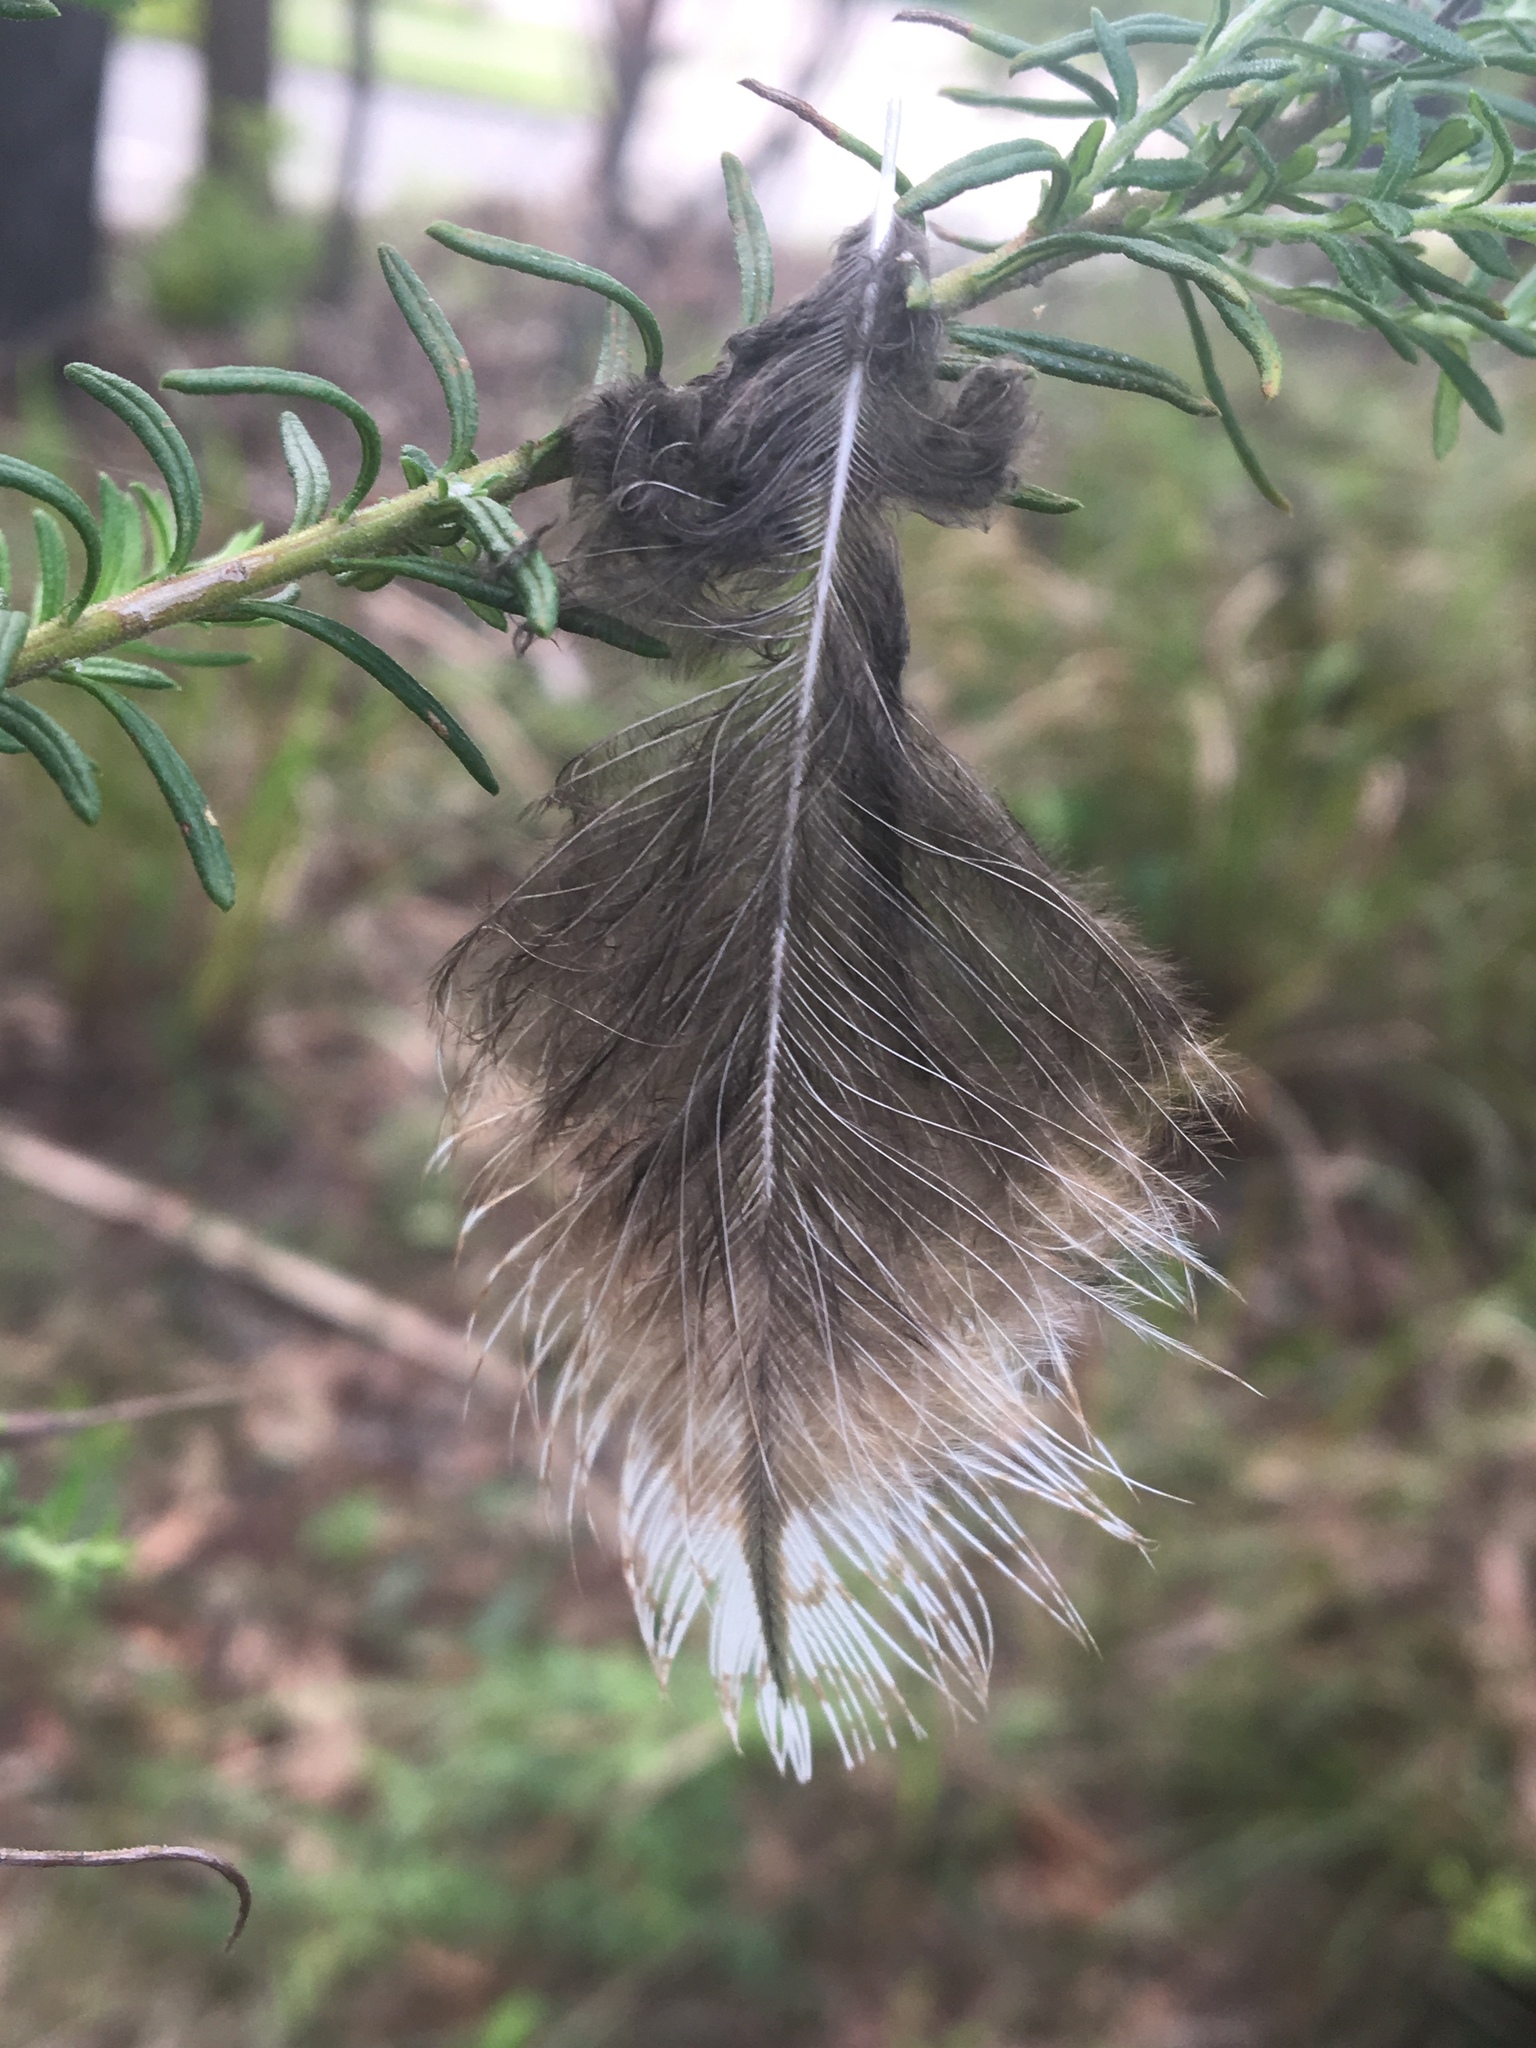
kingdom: Animalia
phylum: Chordata
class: Aves
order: Caprimulgiformes
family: Podargidae
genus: Podargus
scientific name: Podargus strigoides
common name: Tawny frogmouth
